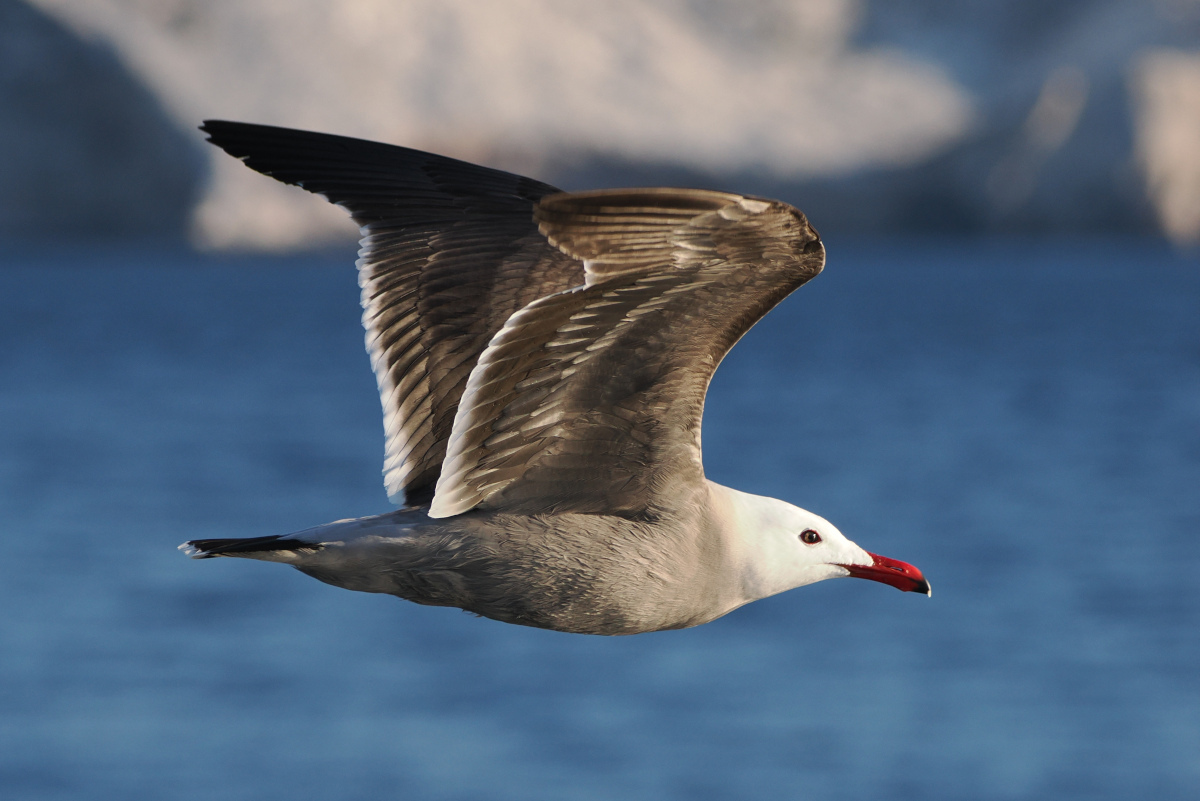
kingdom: Animalia
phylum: Chordata
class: Aves
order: Charadriiformes
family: Laridae
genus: Larus
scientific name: Larus heermanni
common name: Heermann's gull
